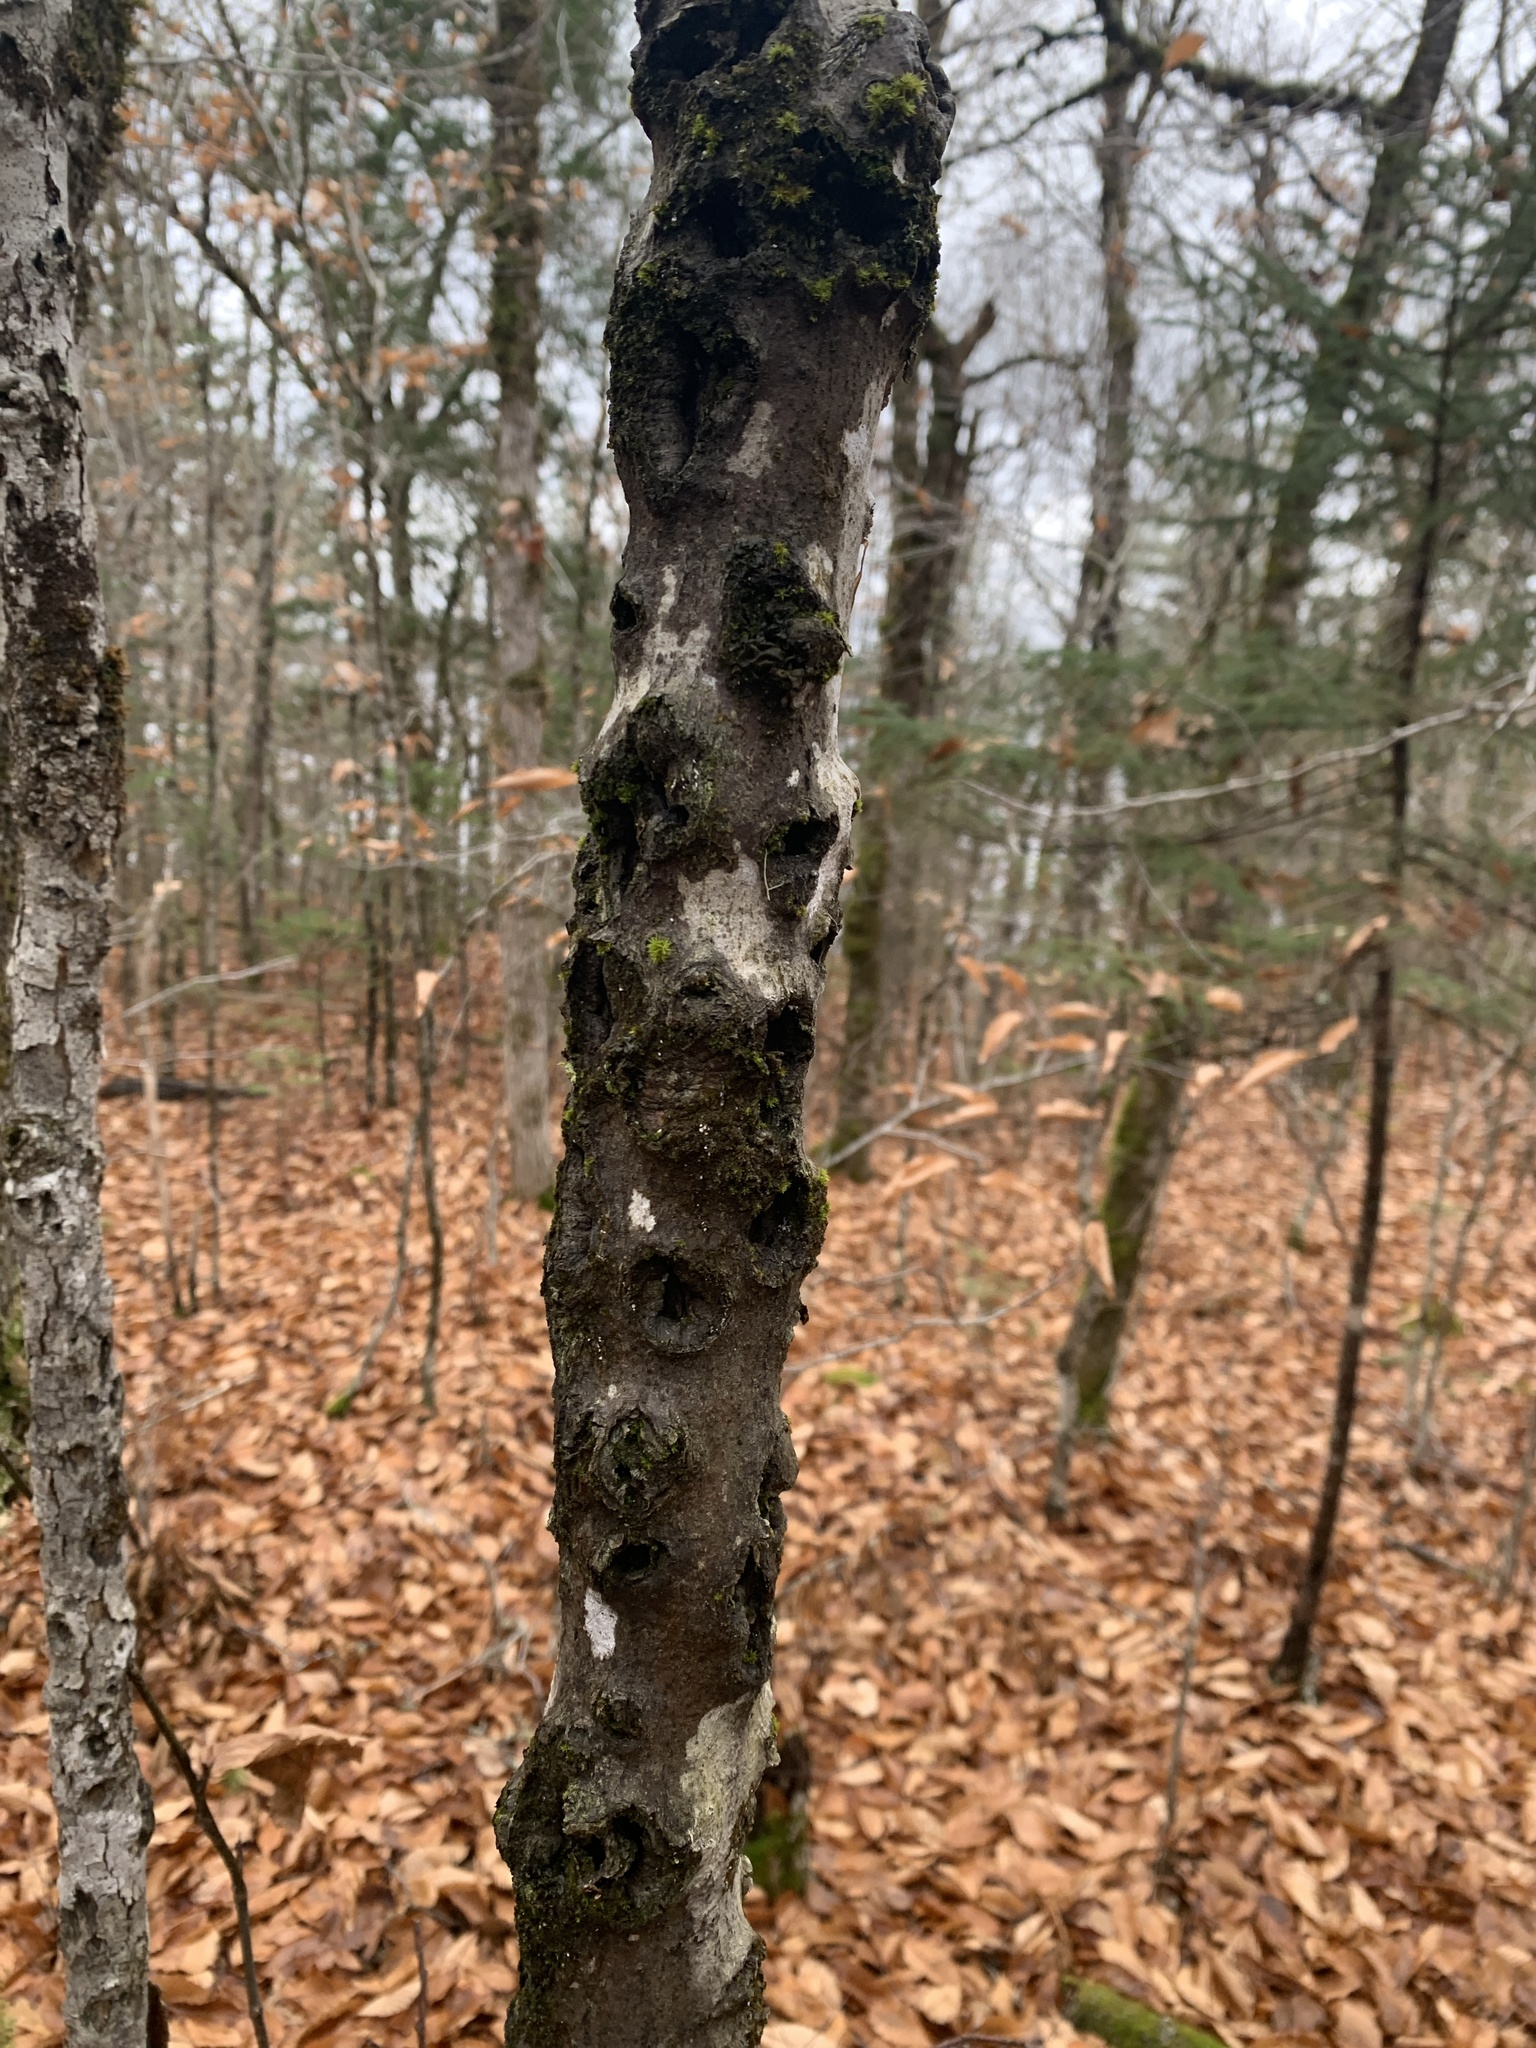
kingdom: Fungi
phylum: Ascomycota
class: Sordariomycetes
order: Hypocreales
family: Nectriaceae
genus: Neonectria
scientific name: Neonectria faginata
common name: Beech bark canker
